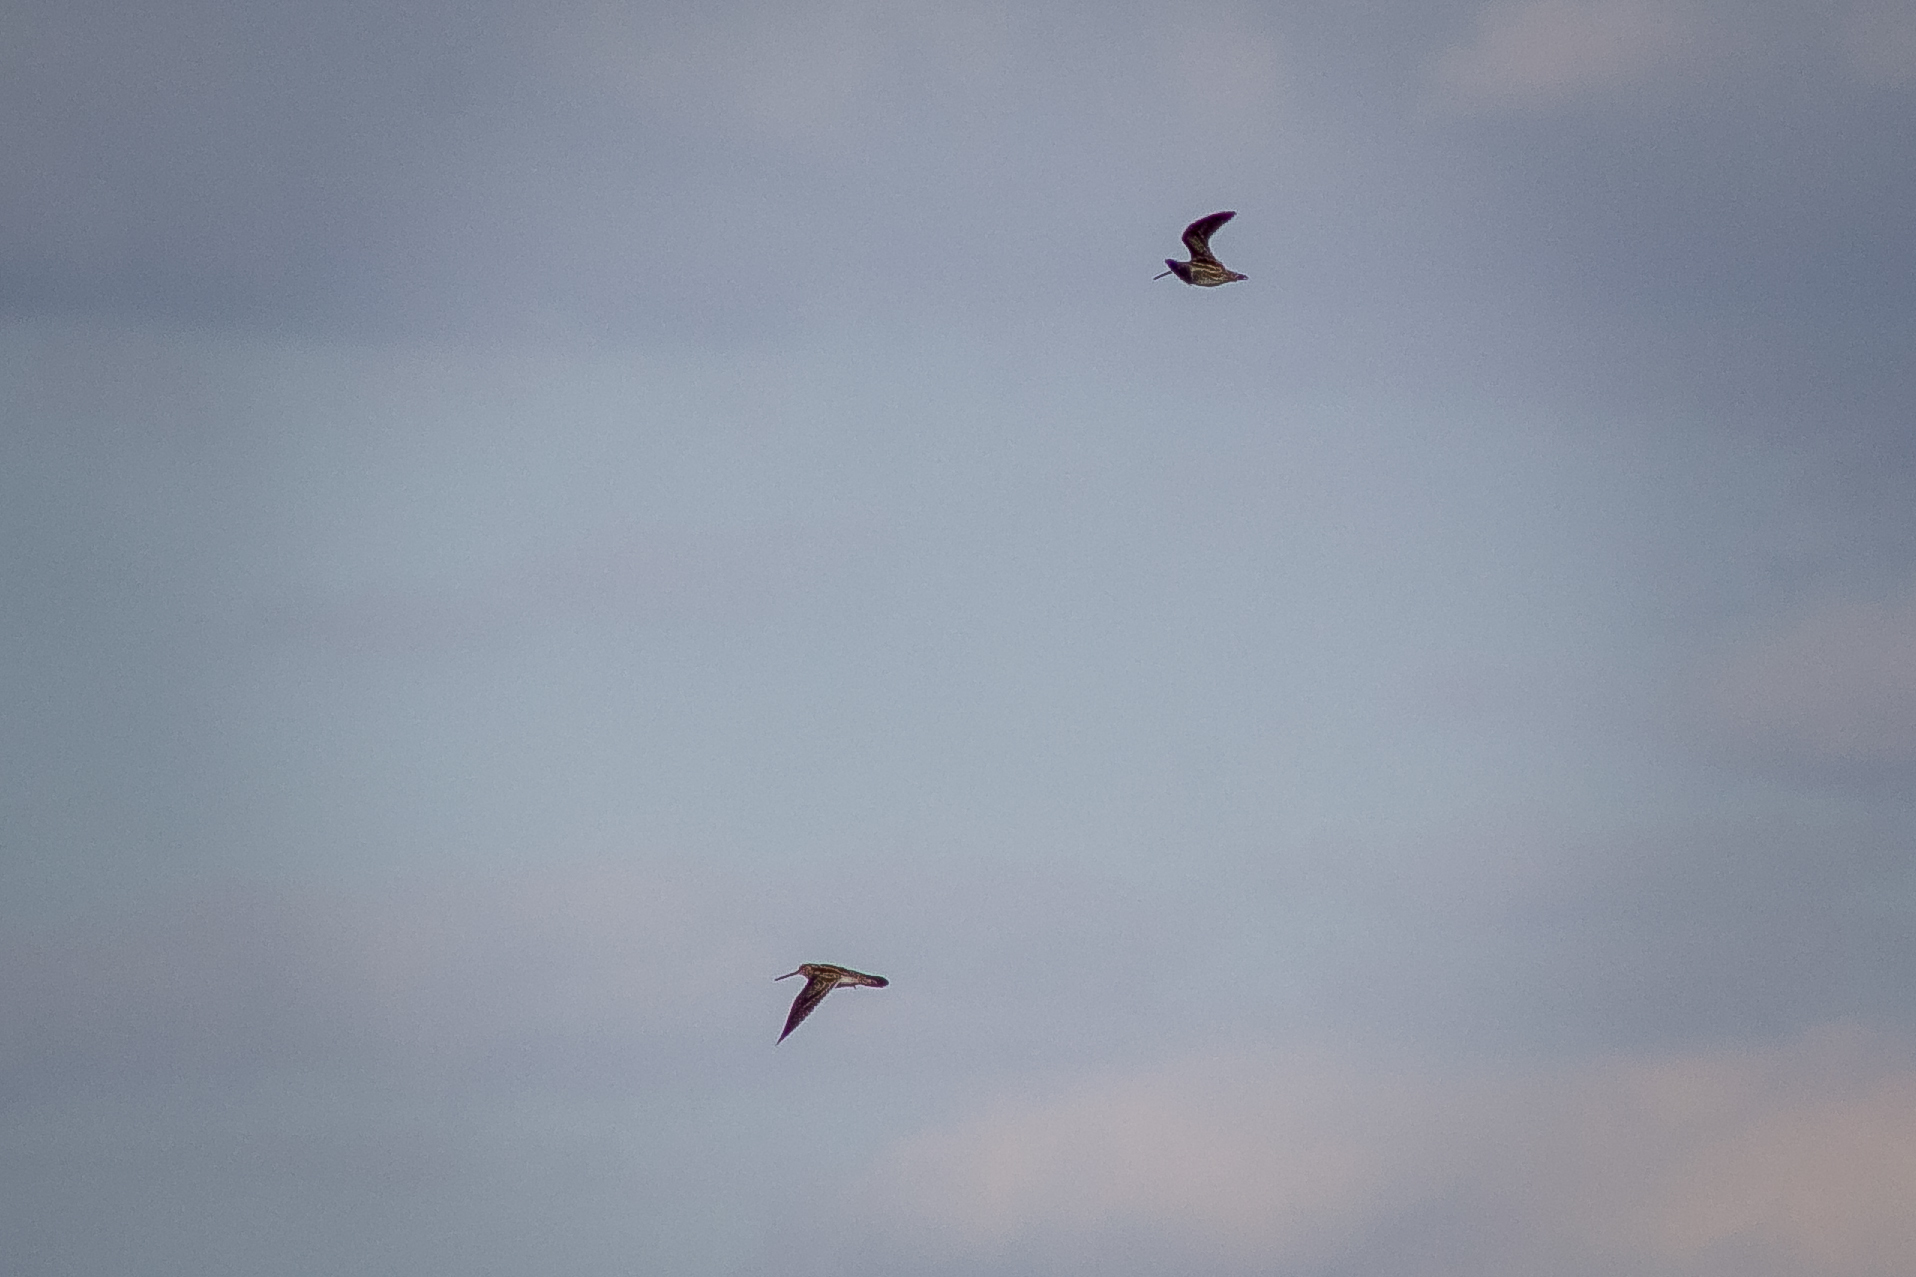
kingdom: Animalia
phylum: Chordata
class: Aves
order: Charadriiformes
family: Scolopacidae
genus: Gallinago
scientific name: Gallinago gallinago
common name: Common snipe
